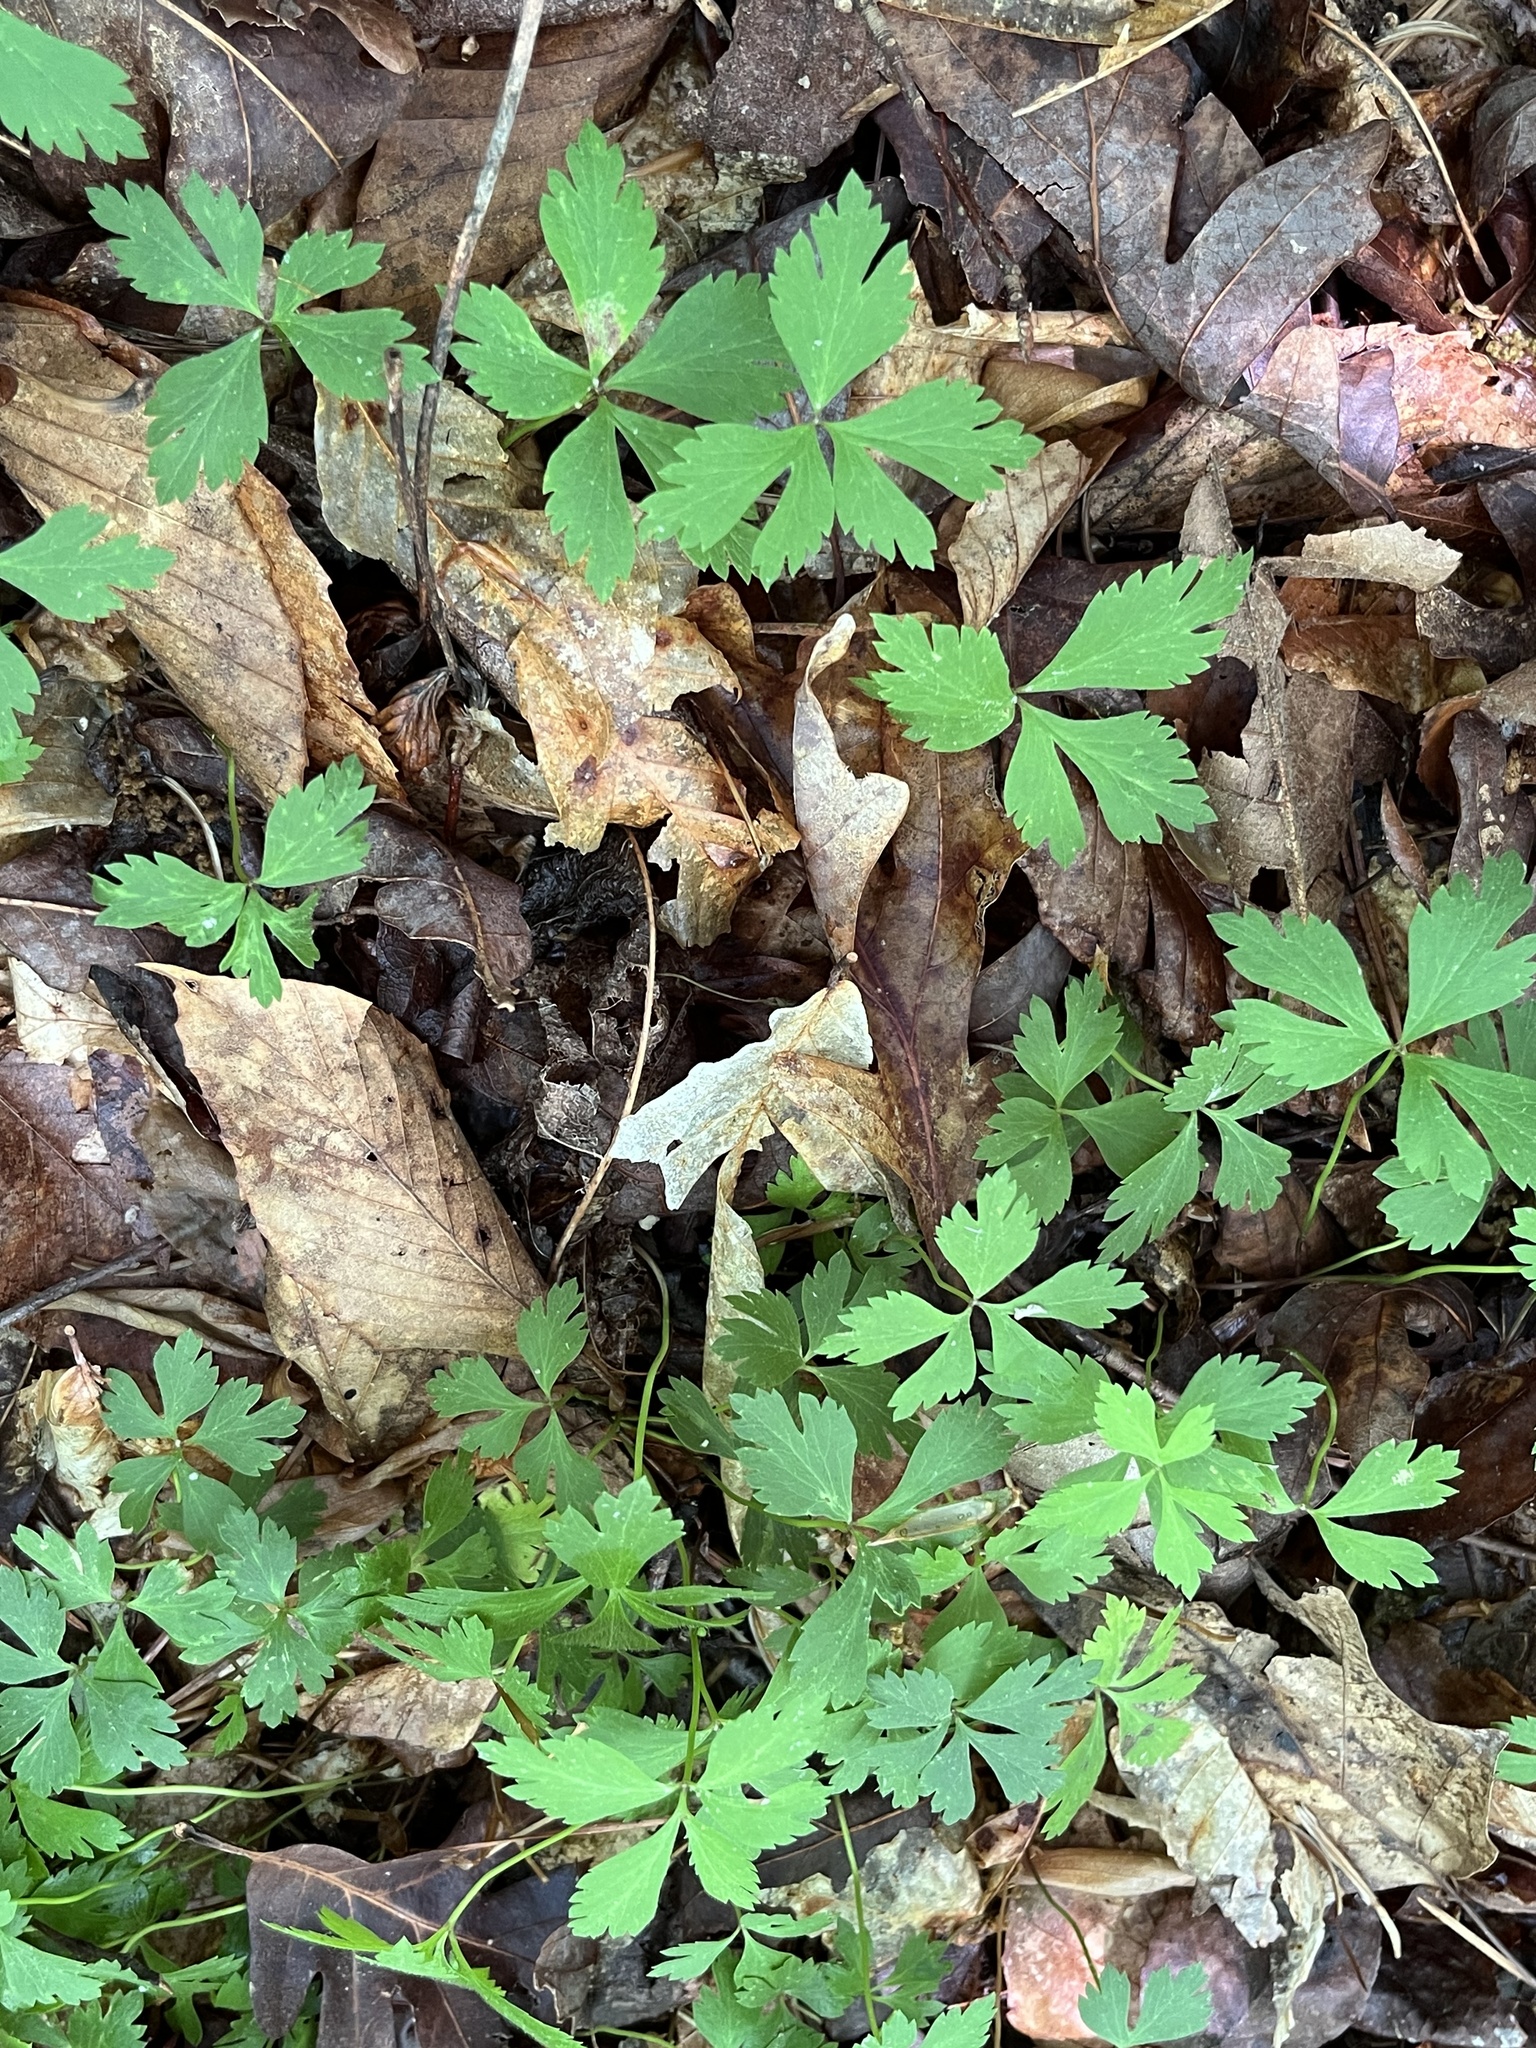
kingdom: Plantae
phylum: Tracheophyta
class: Magnoliopsida
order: Ranunculales
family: Ranunculaceae
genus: Anemone
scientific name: Anemone quinquefolia
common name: Wood anemone
